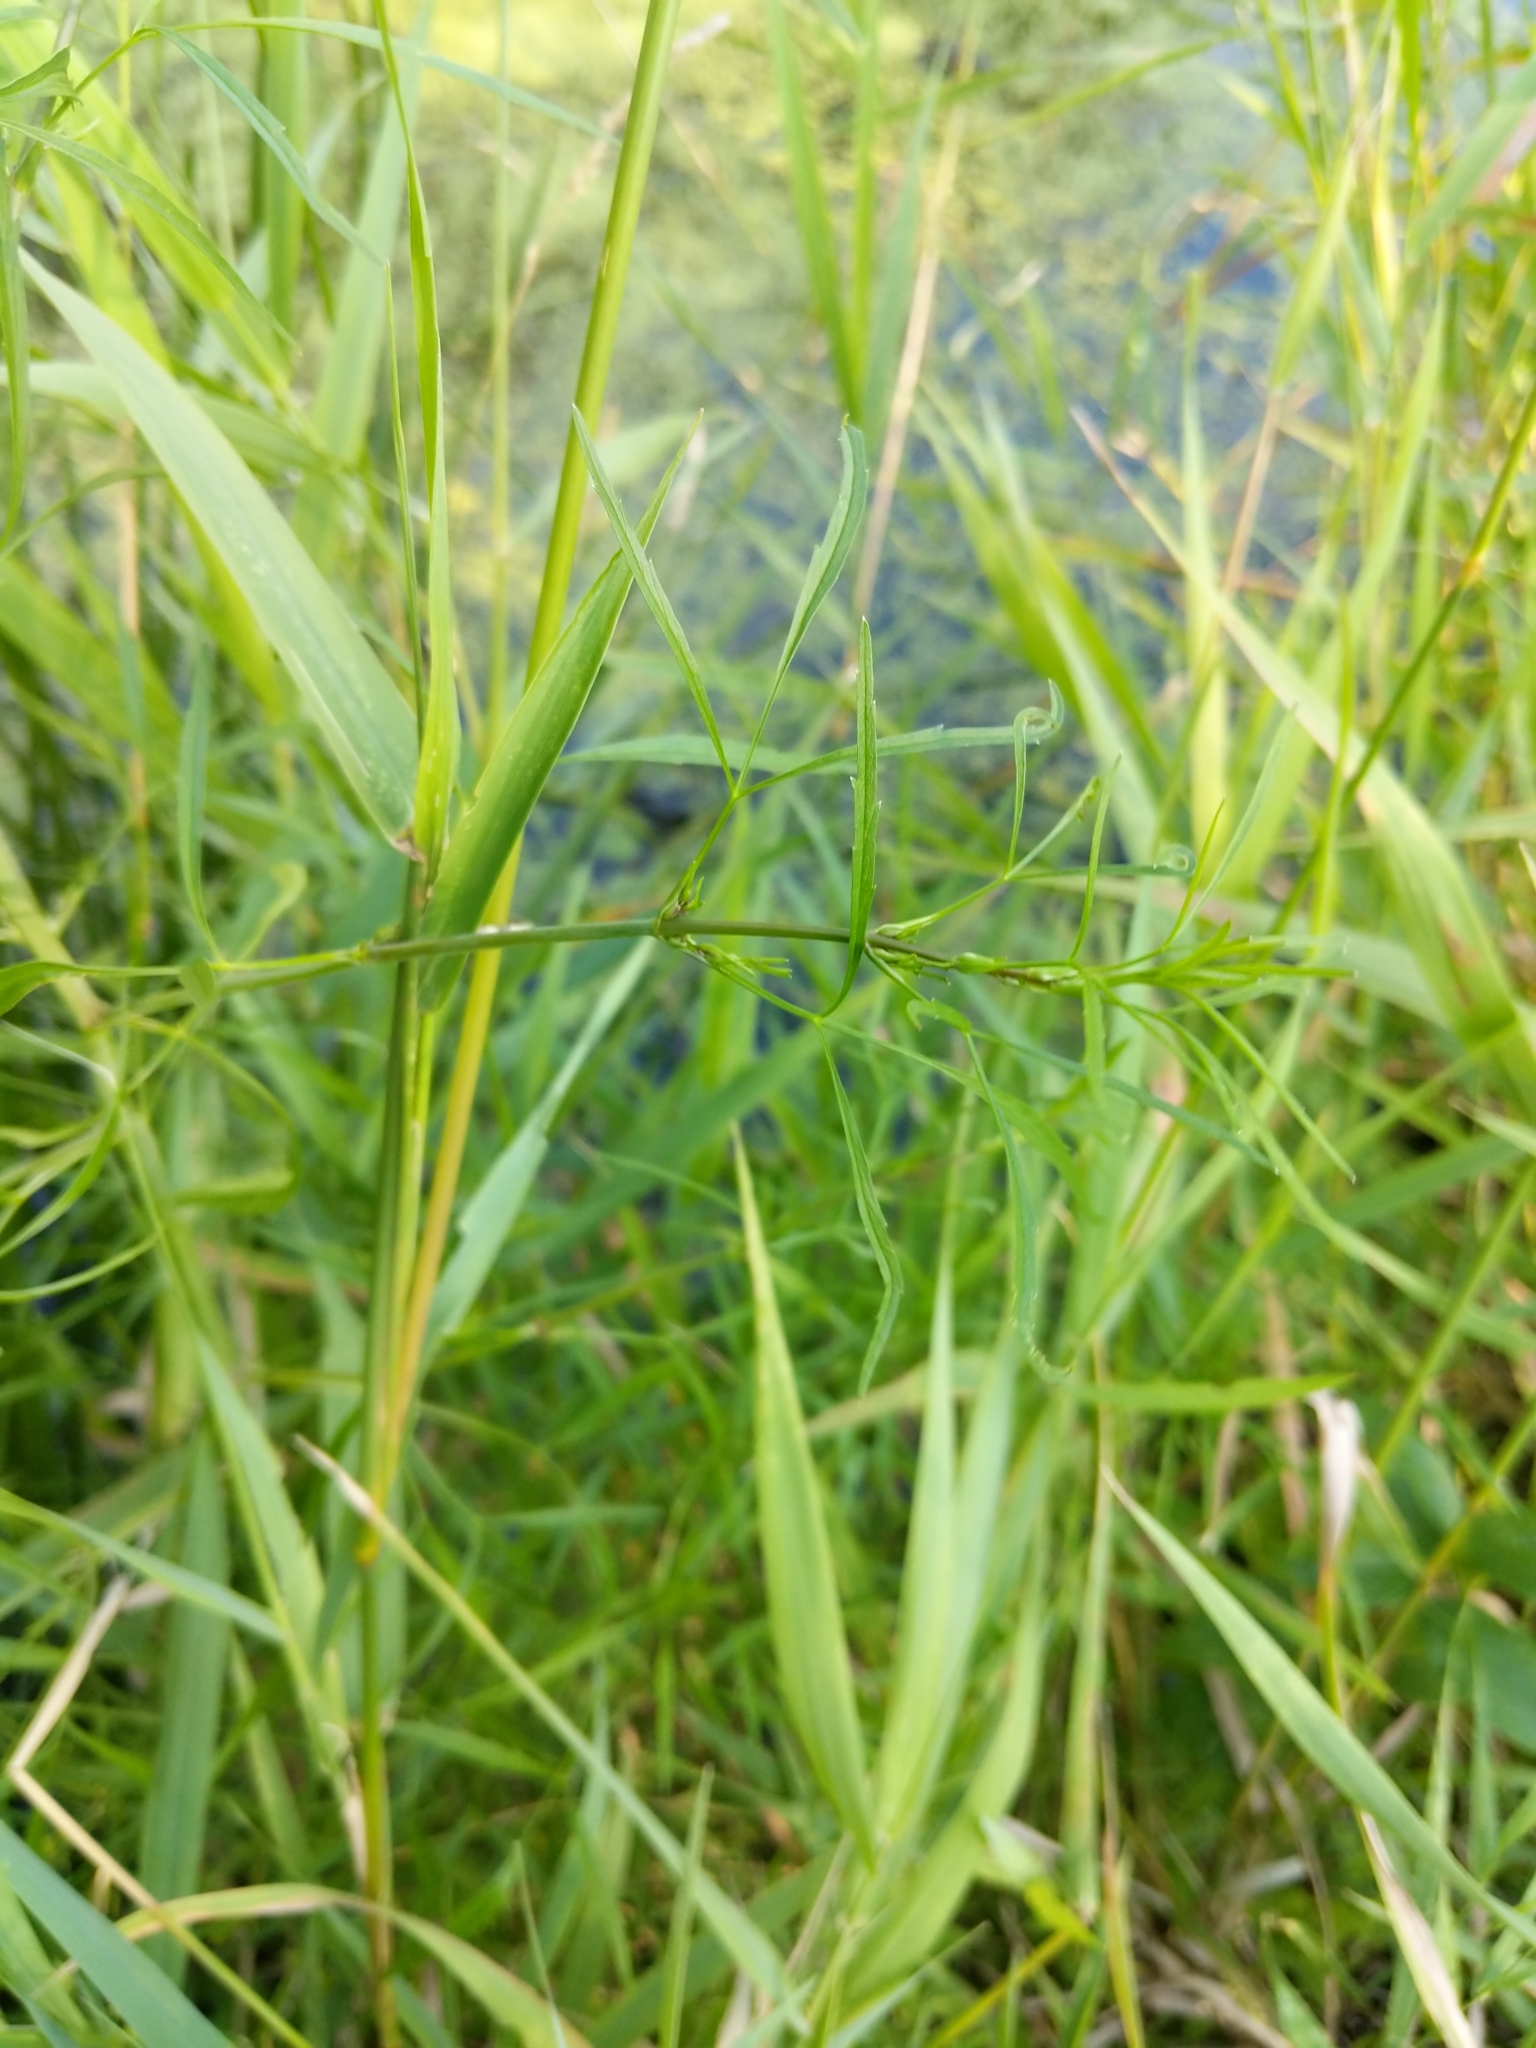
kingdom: Plantae
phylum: Tracheophyta
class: Magnoliopsida
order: Apiales
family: Apiaceae
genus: Cicuta
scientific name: Cicuta bulbifera
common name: Bulb-bearing water-hemlock
